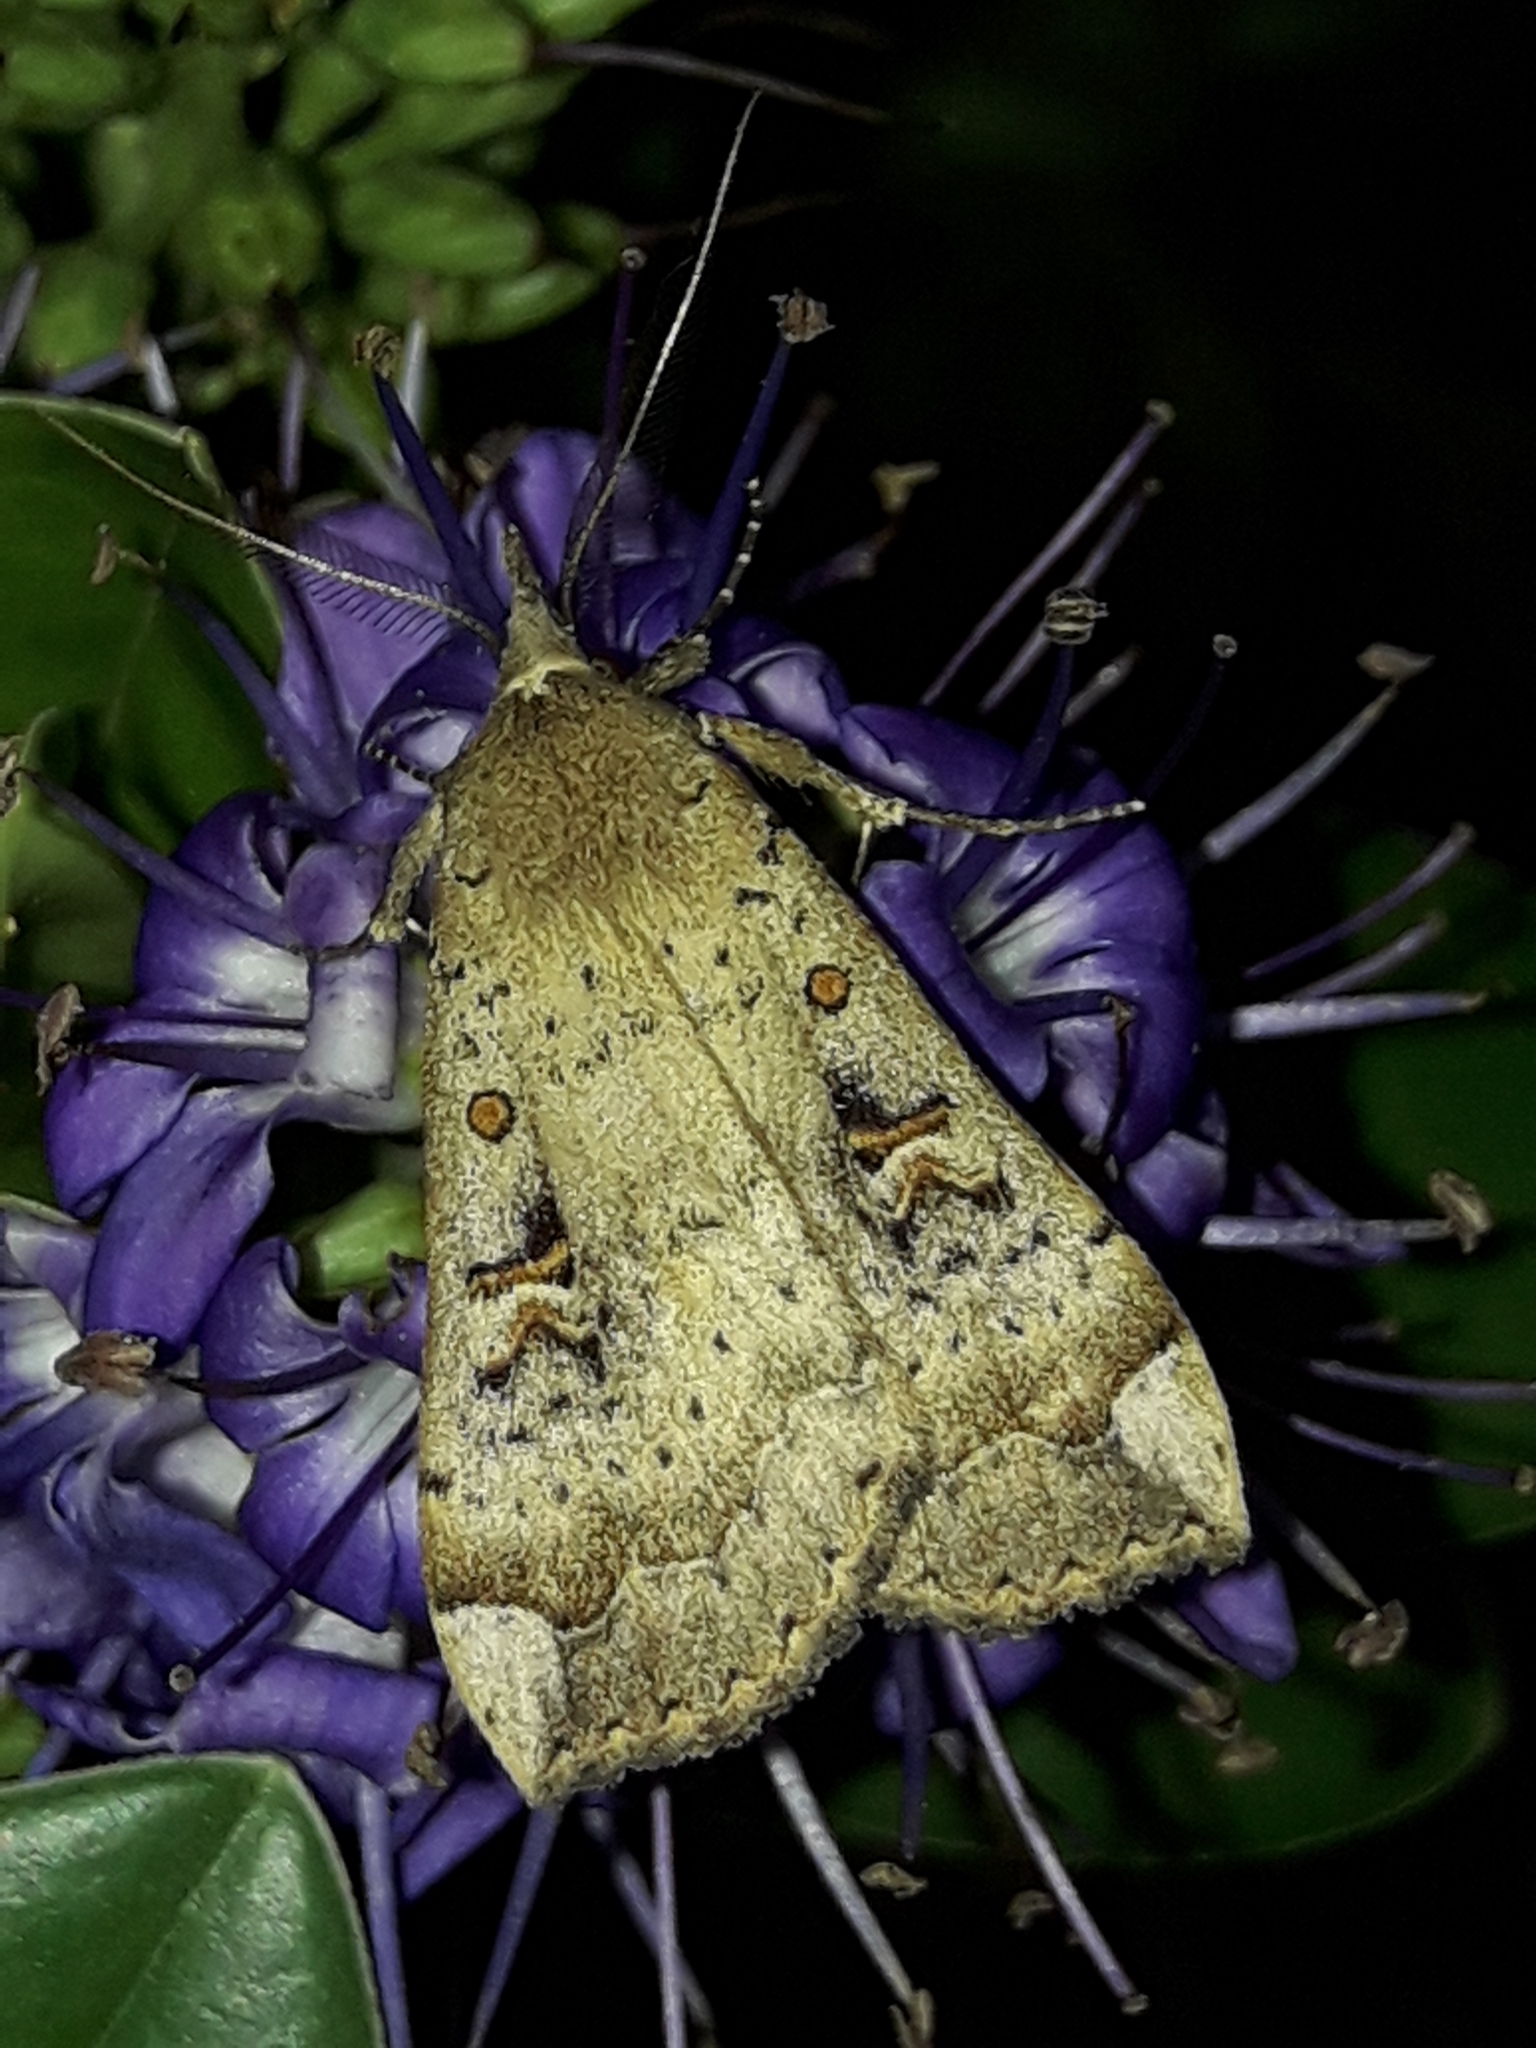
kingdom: Animalia
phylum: Arthropoda
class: Insecta
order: Lepidoptera
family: Erebidae
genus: Rhapsa
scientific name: Rhapsa scotosialis
